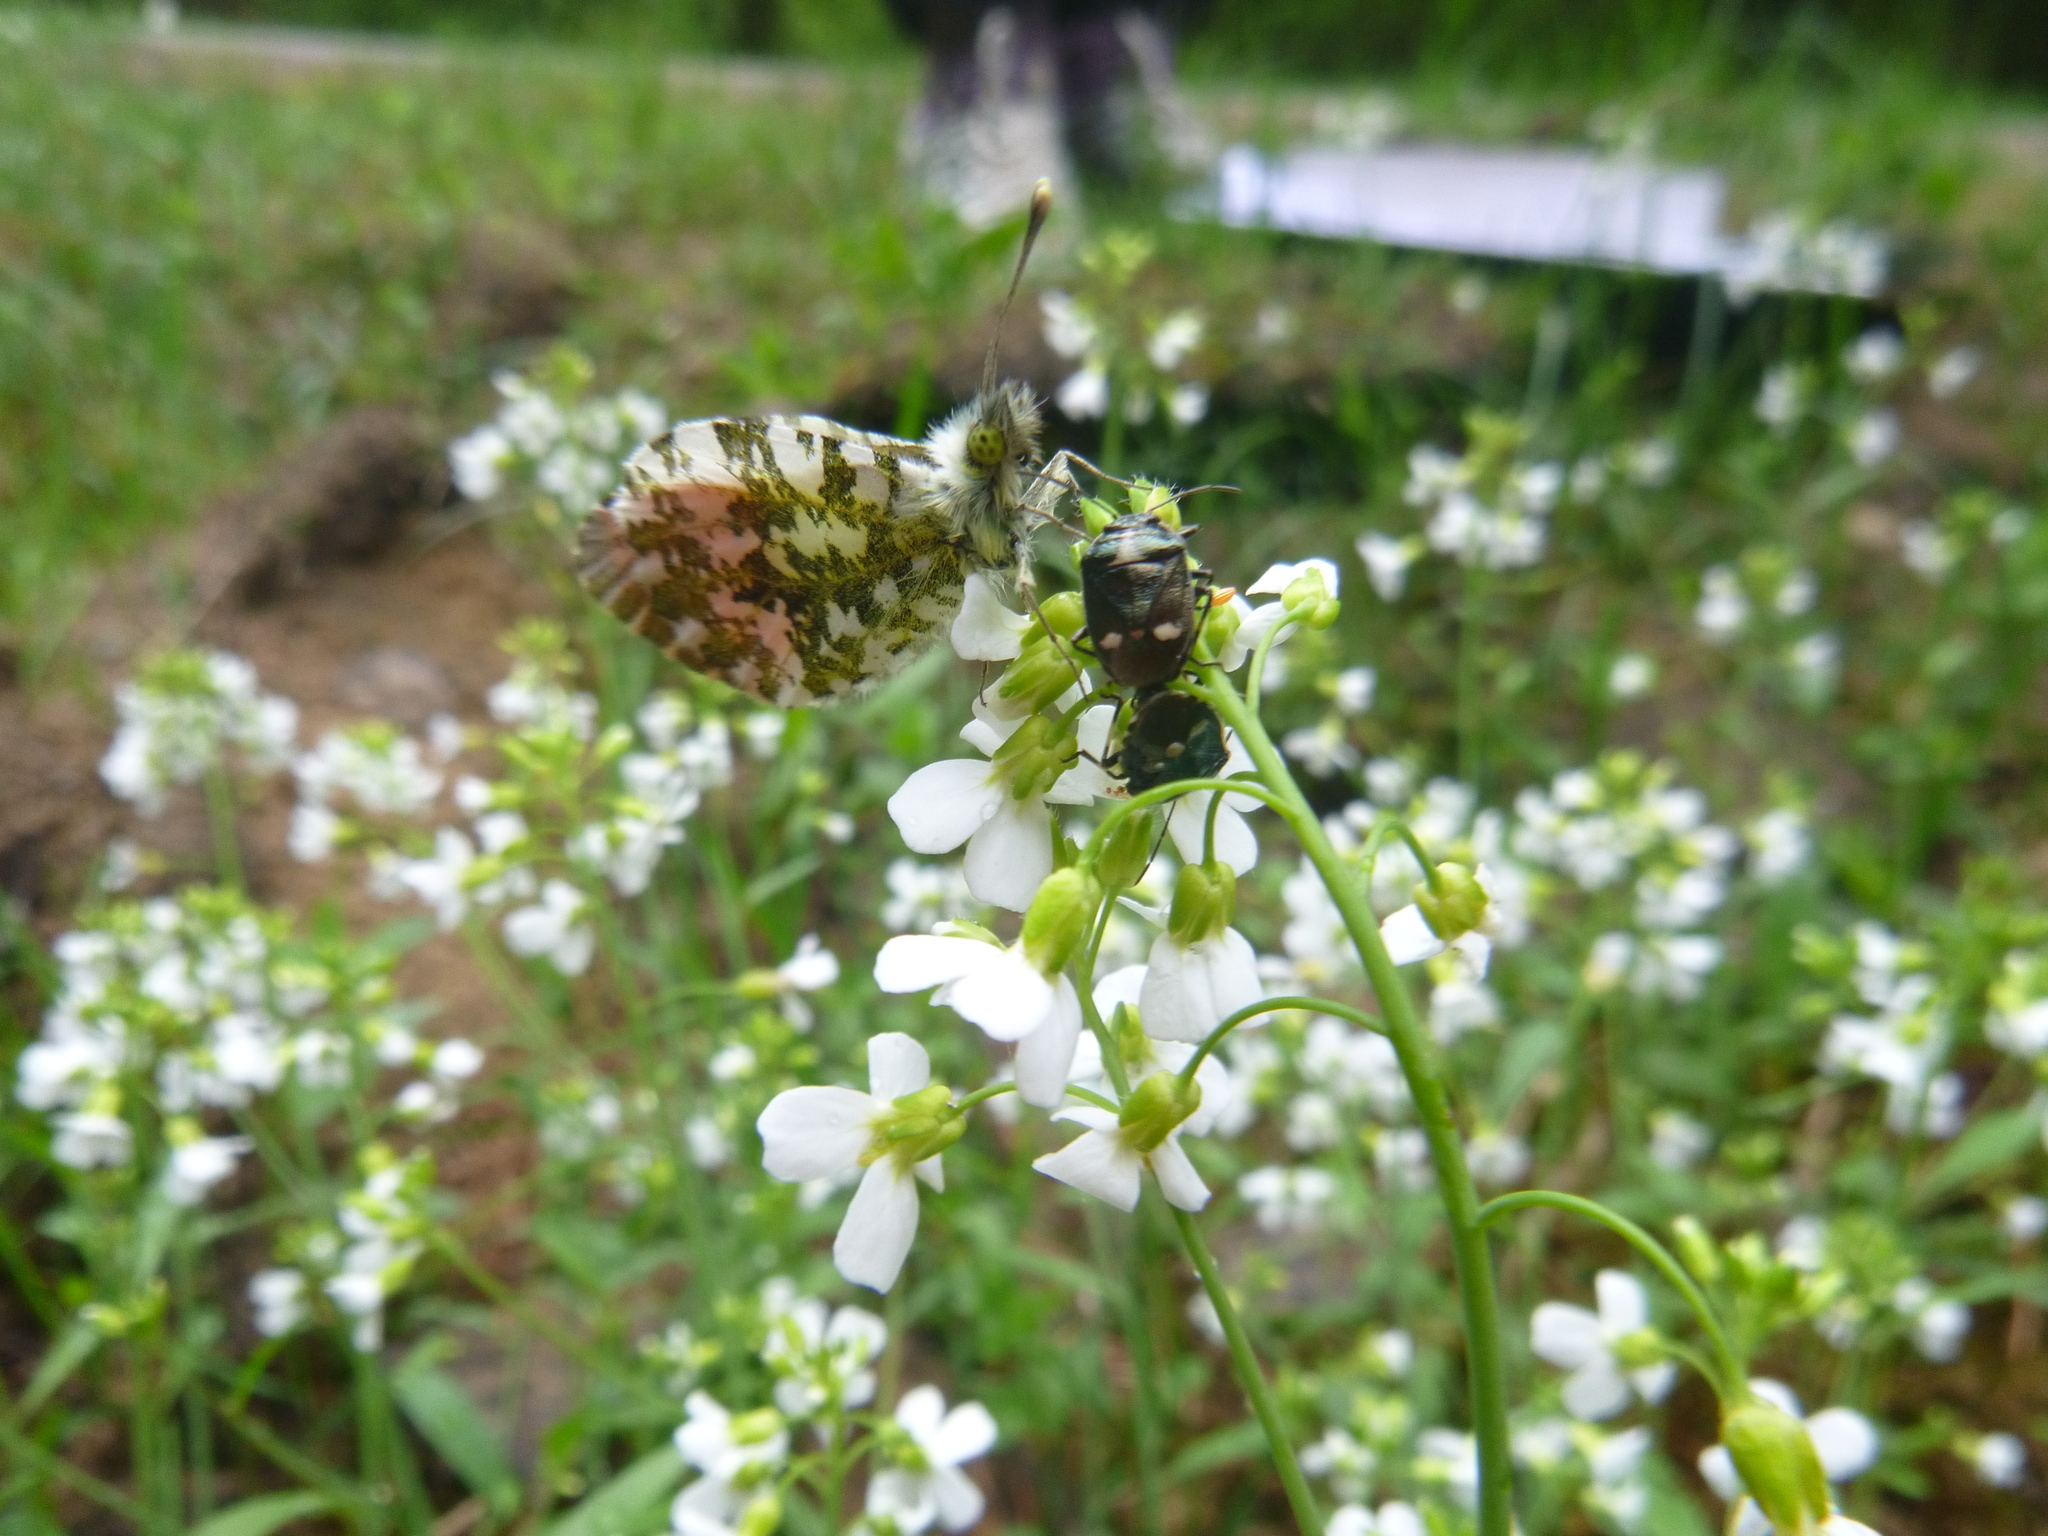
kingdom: Animalia
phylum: Arthropoda
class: Insecta
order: Hemiptera
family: Pentatomidae
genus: Eurydema
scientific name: Eurydema oleracea
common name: Cabbage bug
